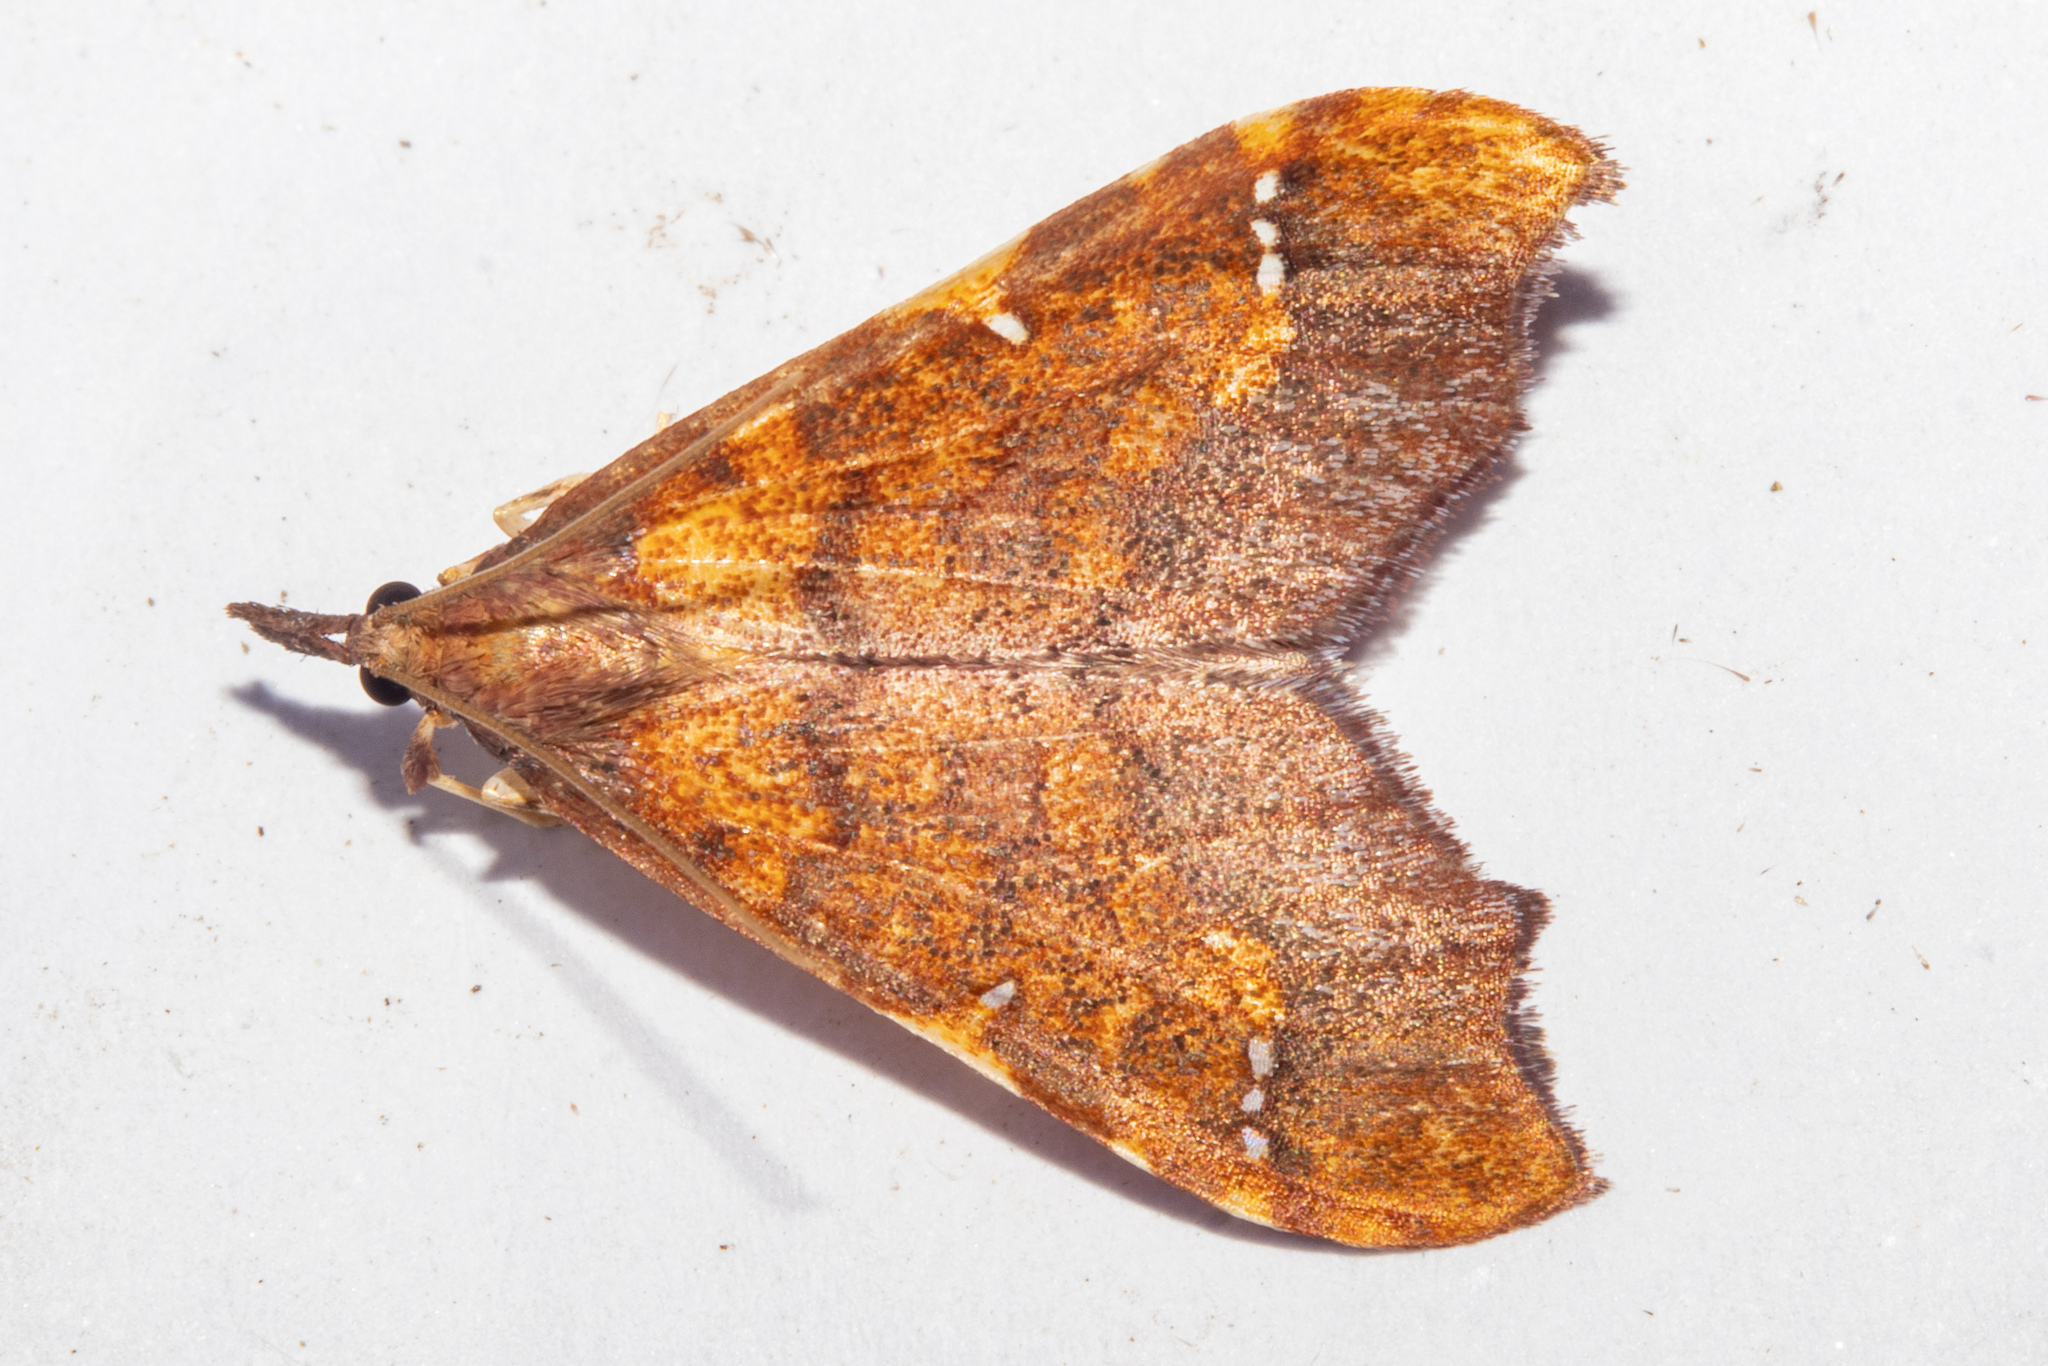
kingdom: Animalia
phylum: Arthropoda
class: Insecta
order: Lepidoptera
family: Crambidae
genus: Deana
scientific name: Deana hybreasalis
